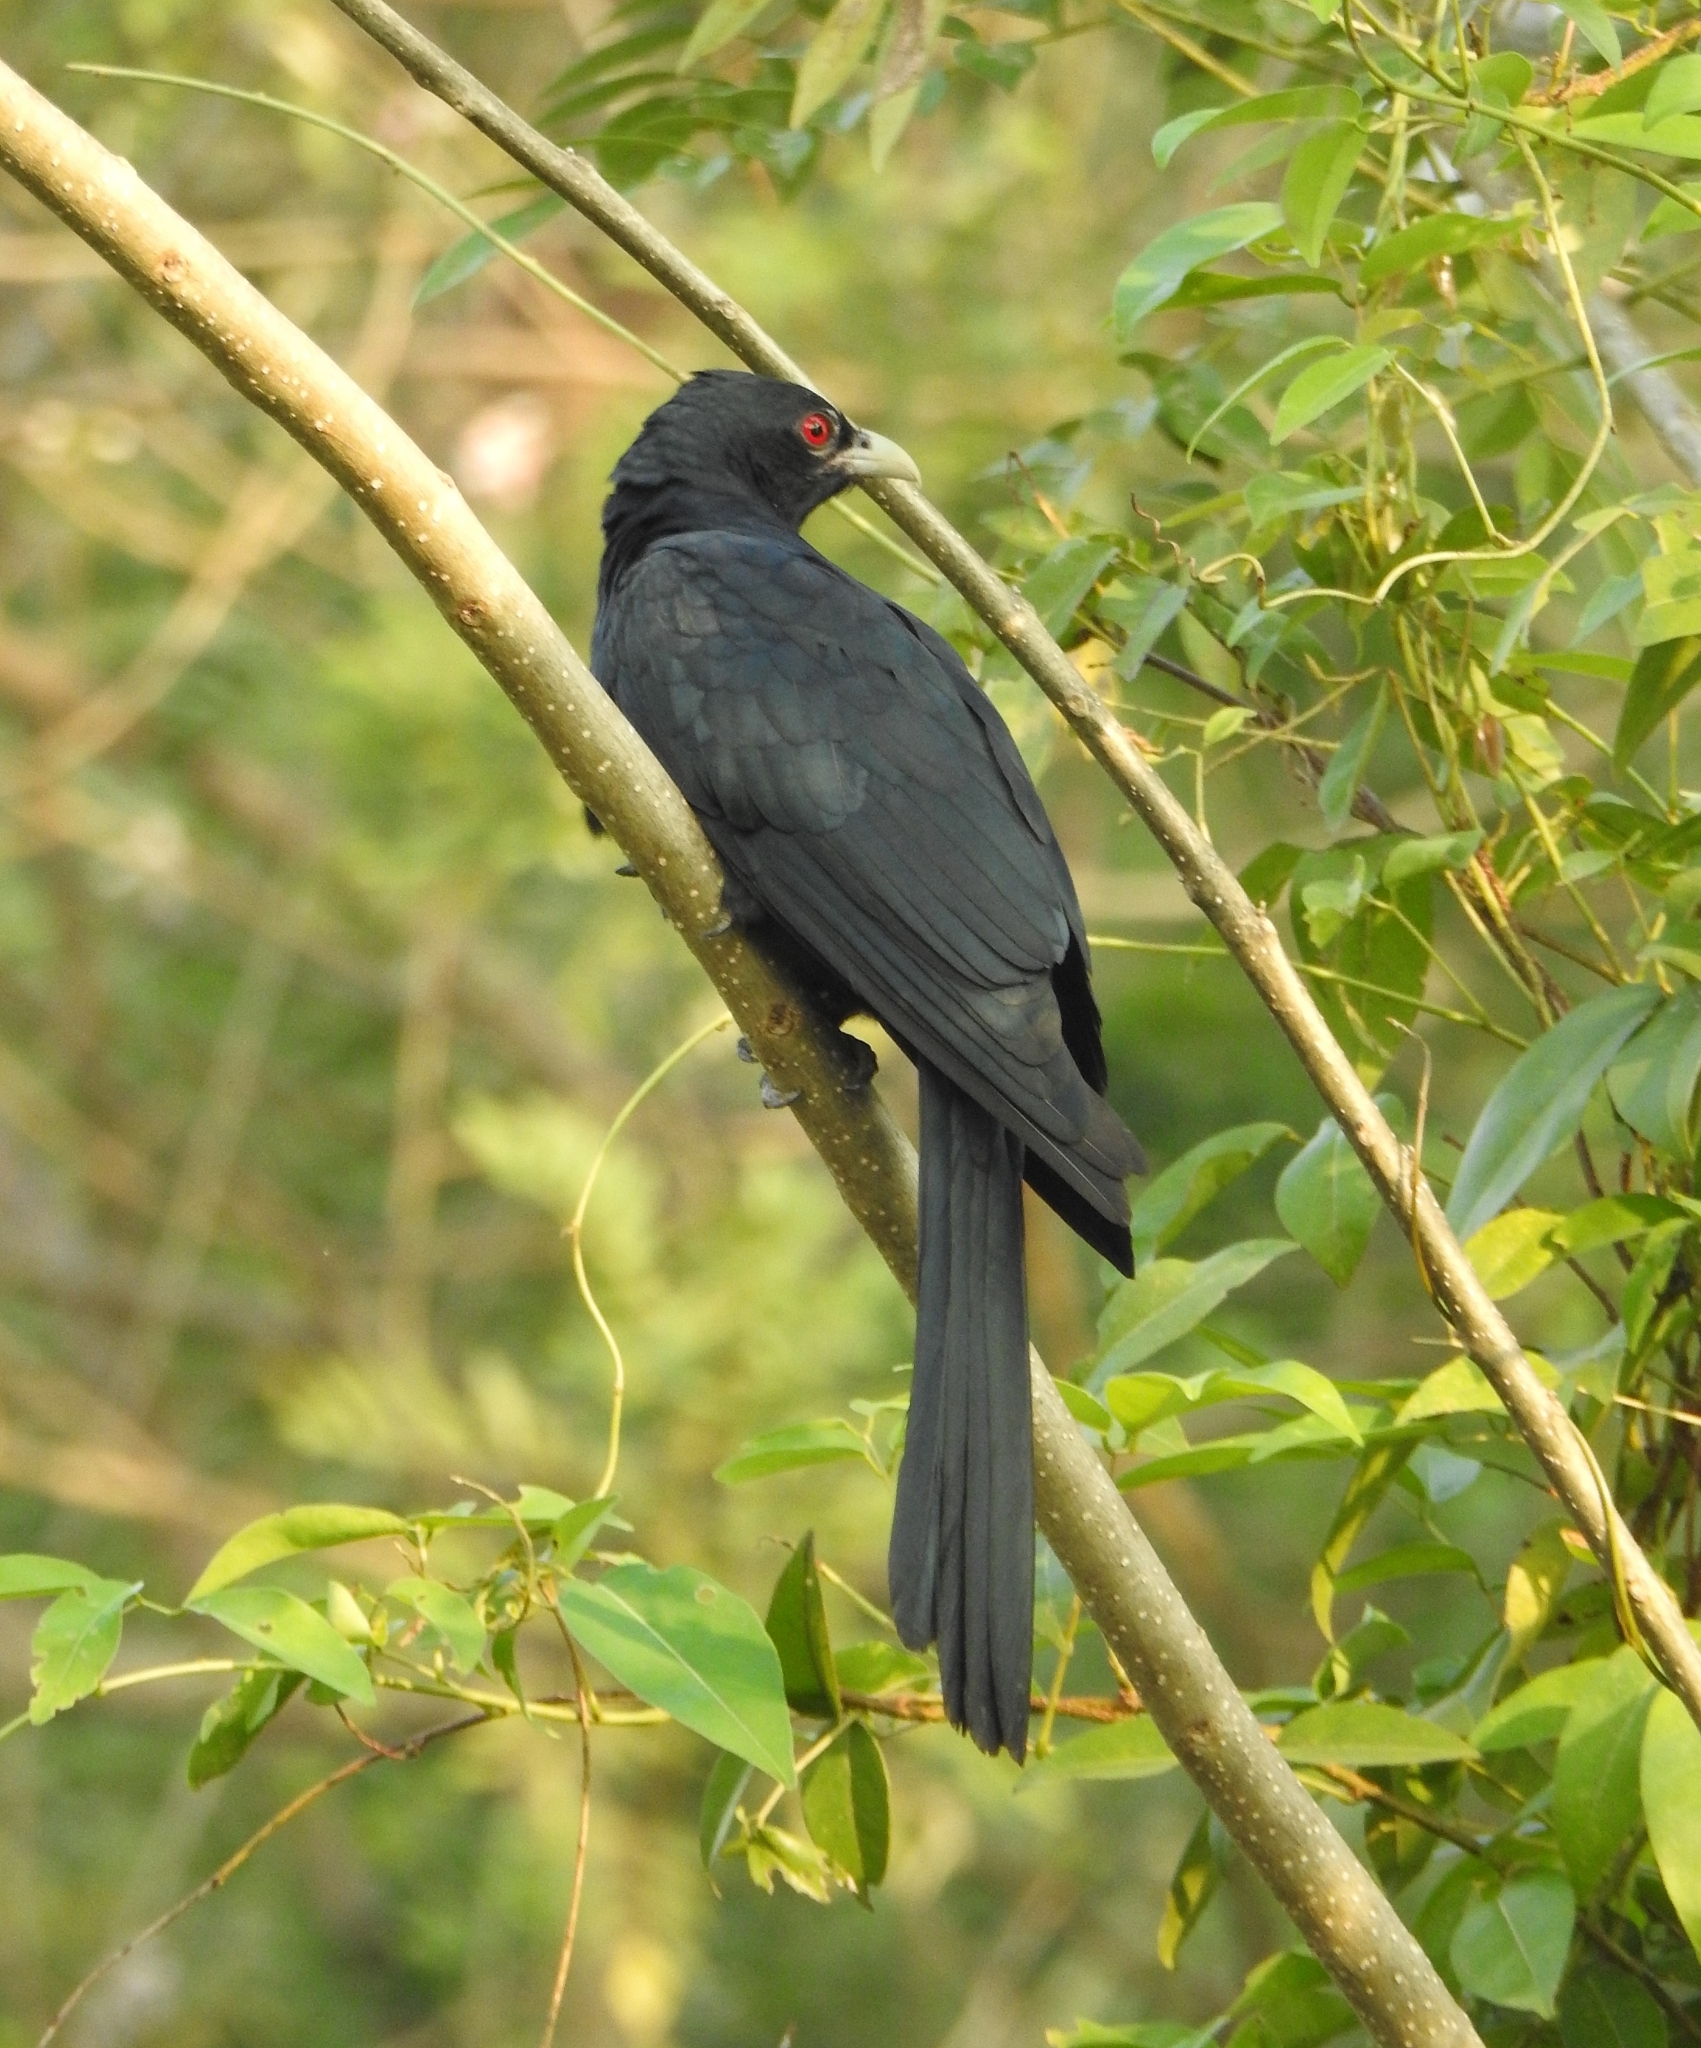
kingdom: Animalia
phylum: Chordata
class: Aves
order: Cuculiformes
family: Cuculidae
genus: Eudynamys
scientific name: Eudynamys scolopaceus
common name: Asian koel
